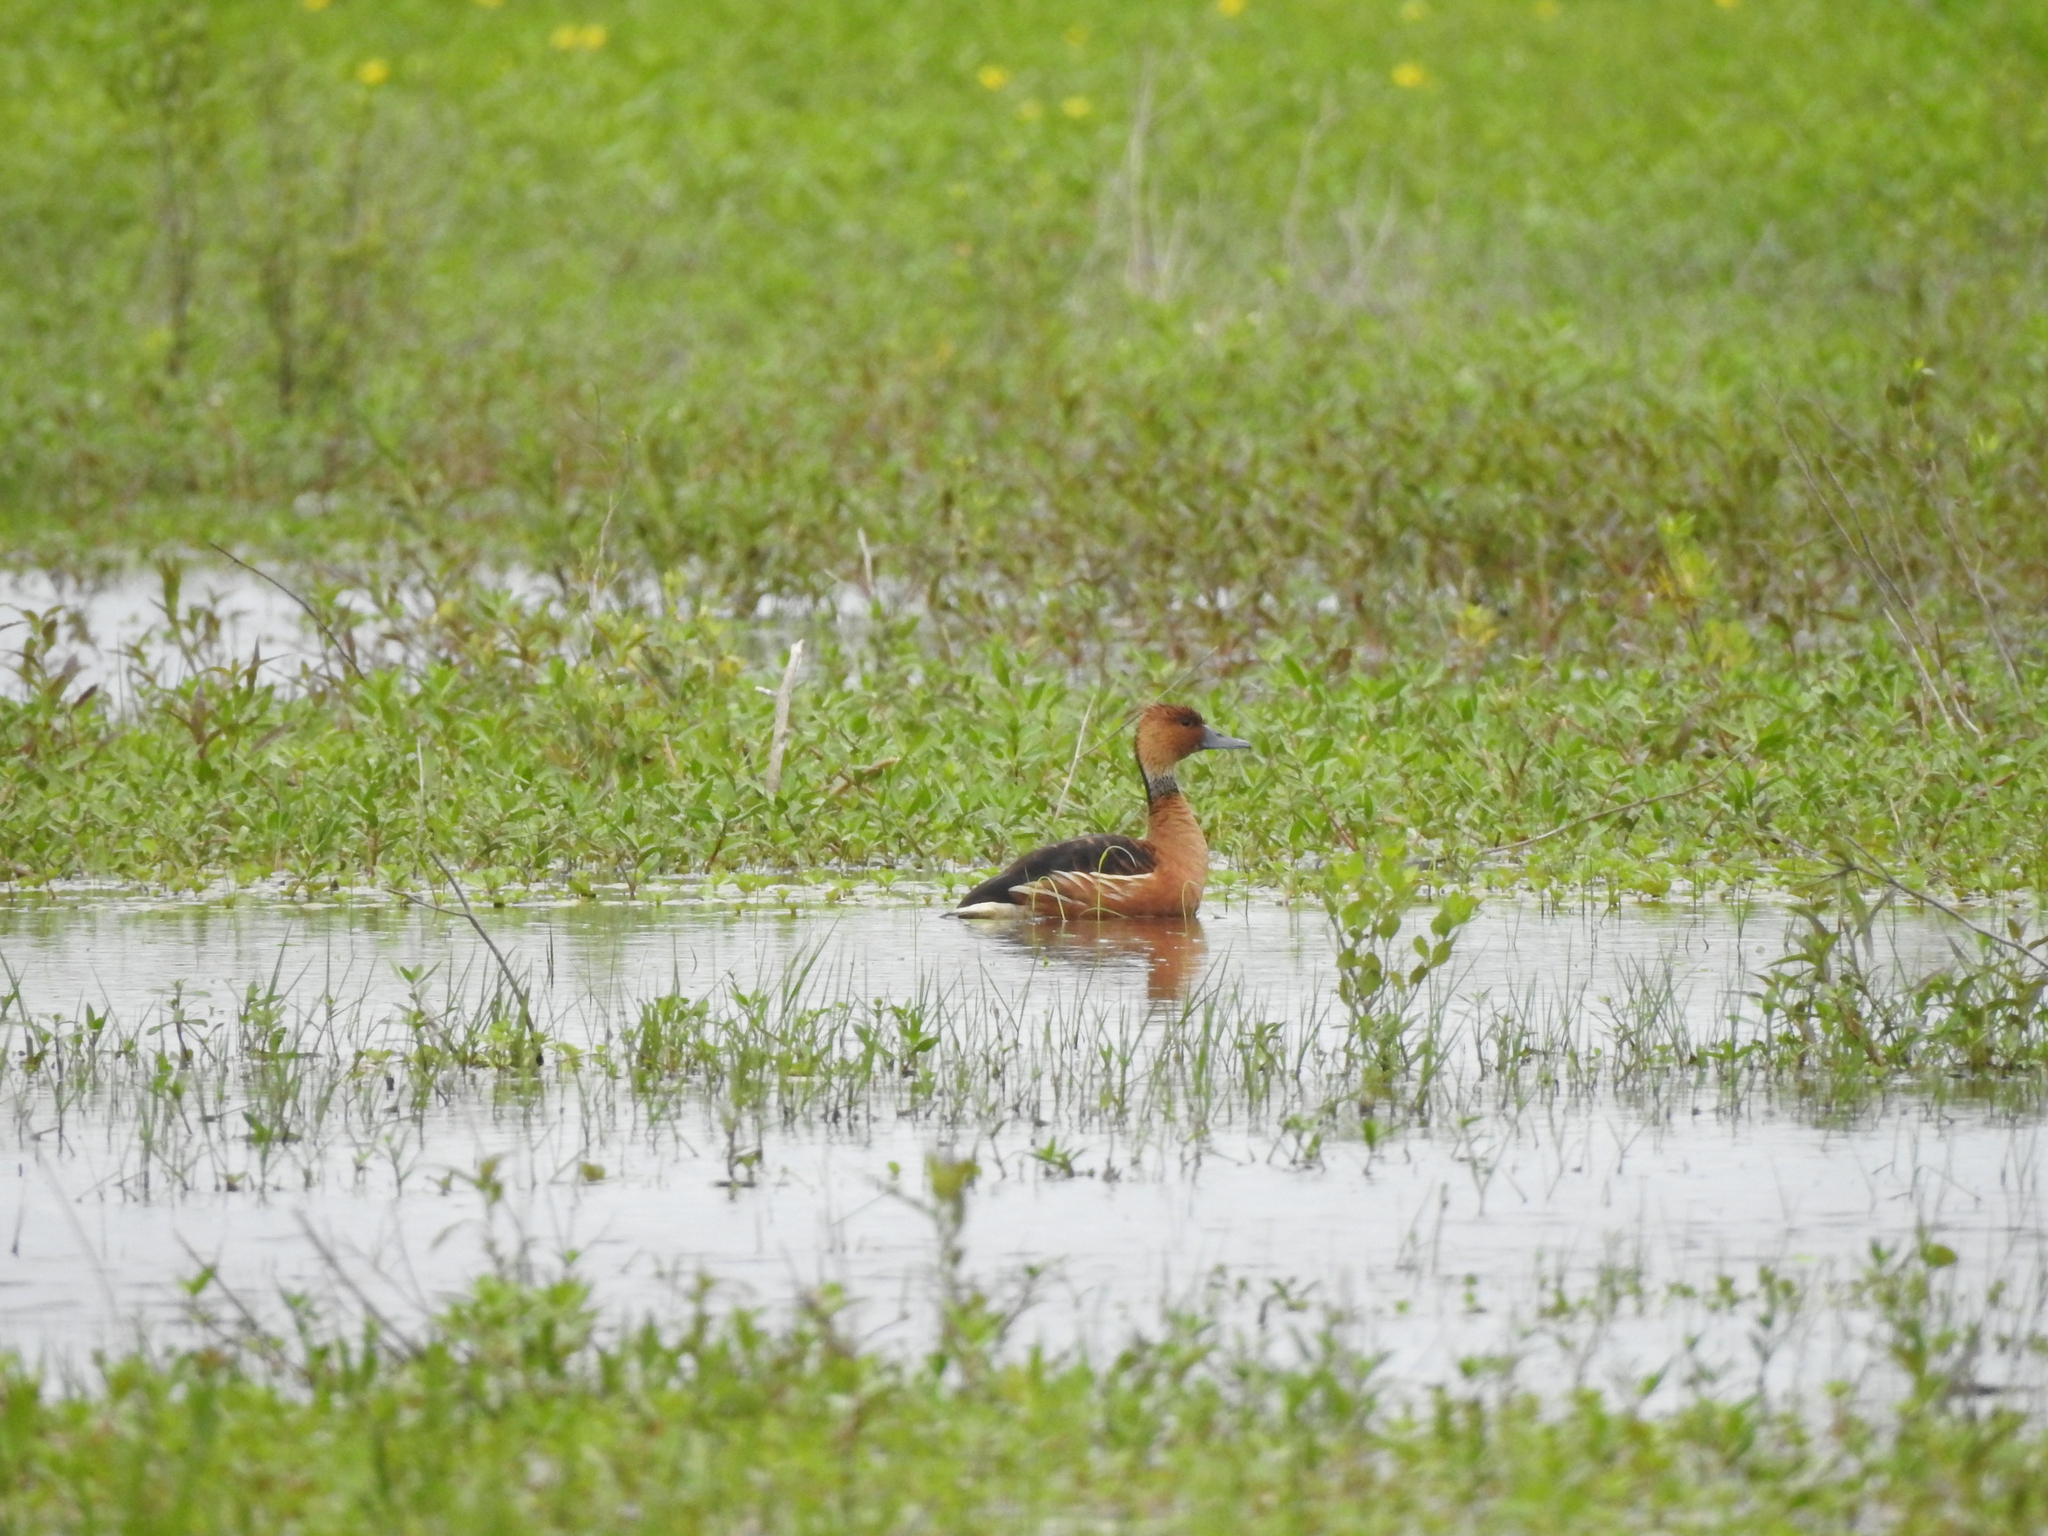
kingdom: Animalia
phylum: Chordata
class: Aves
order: Anseriformes
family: Anatidae
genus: Dendrocygna
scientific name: Dendrocygna bicolor
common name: Fulvous whistling duck
